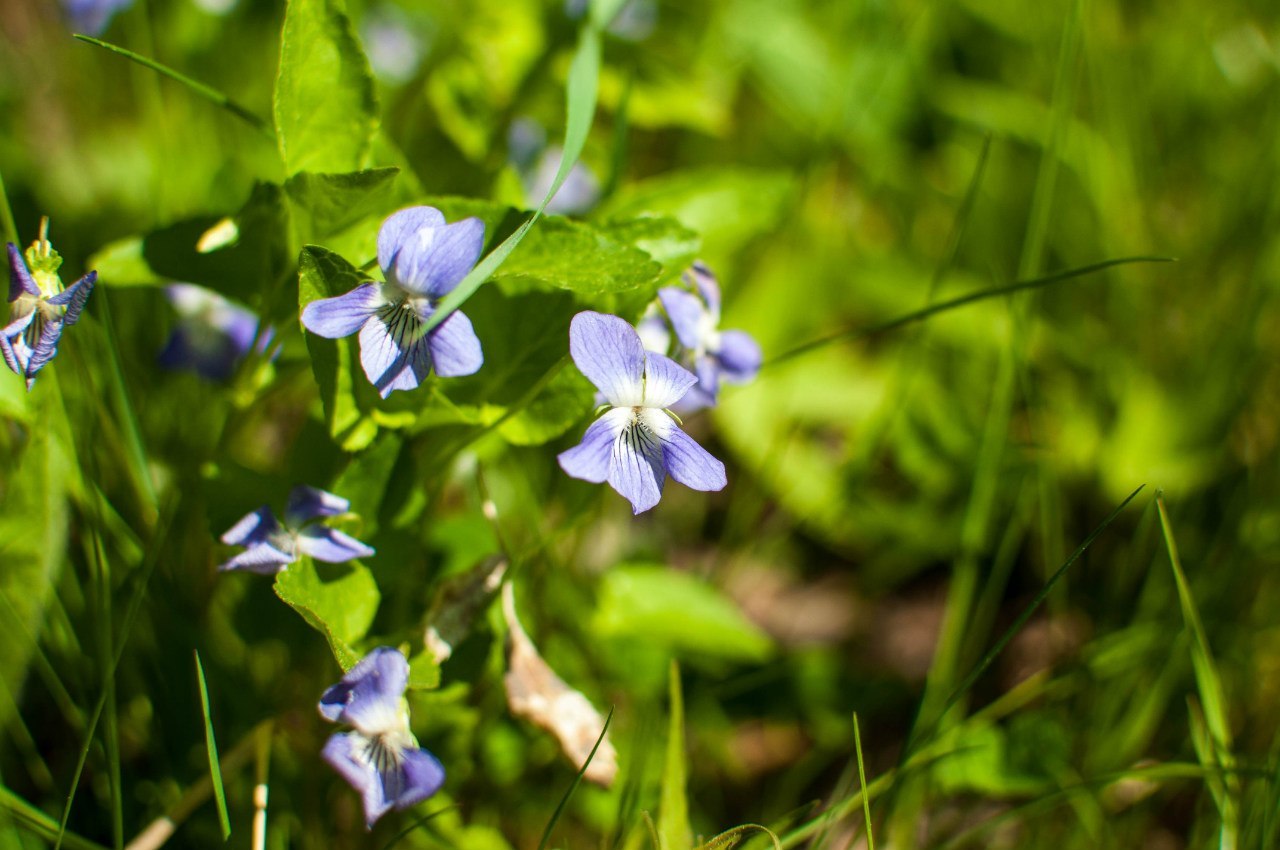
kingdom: Plantae
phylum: Tracheophyta
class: Magnoliopsida
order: Malpighiales
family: Violaceae
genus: Viola
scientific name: Viola canina
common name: Heath dog-violet
